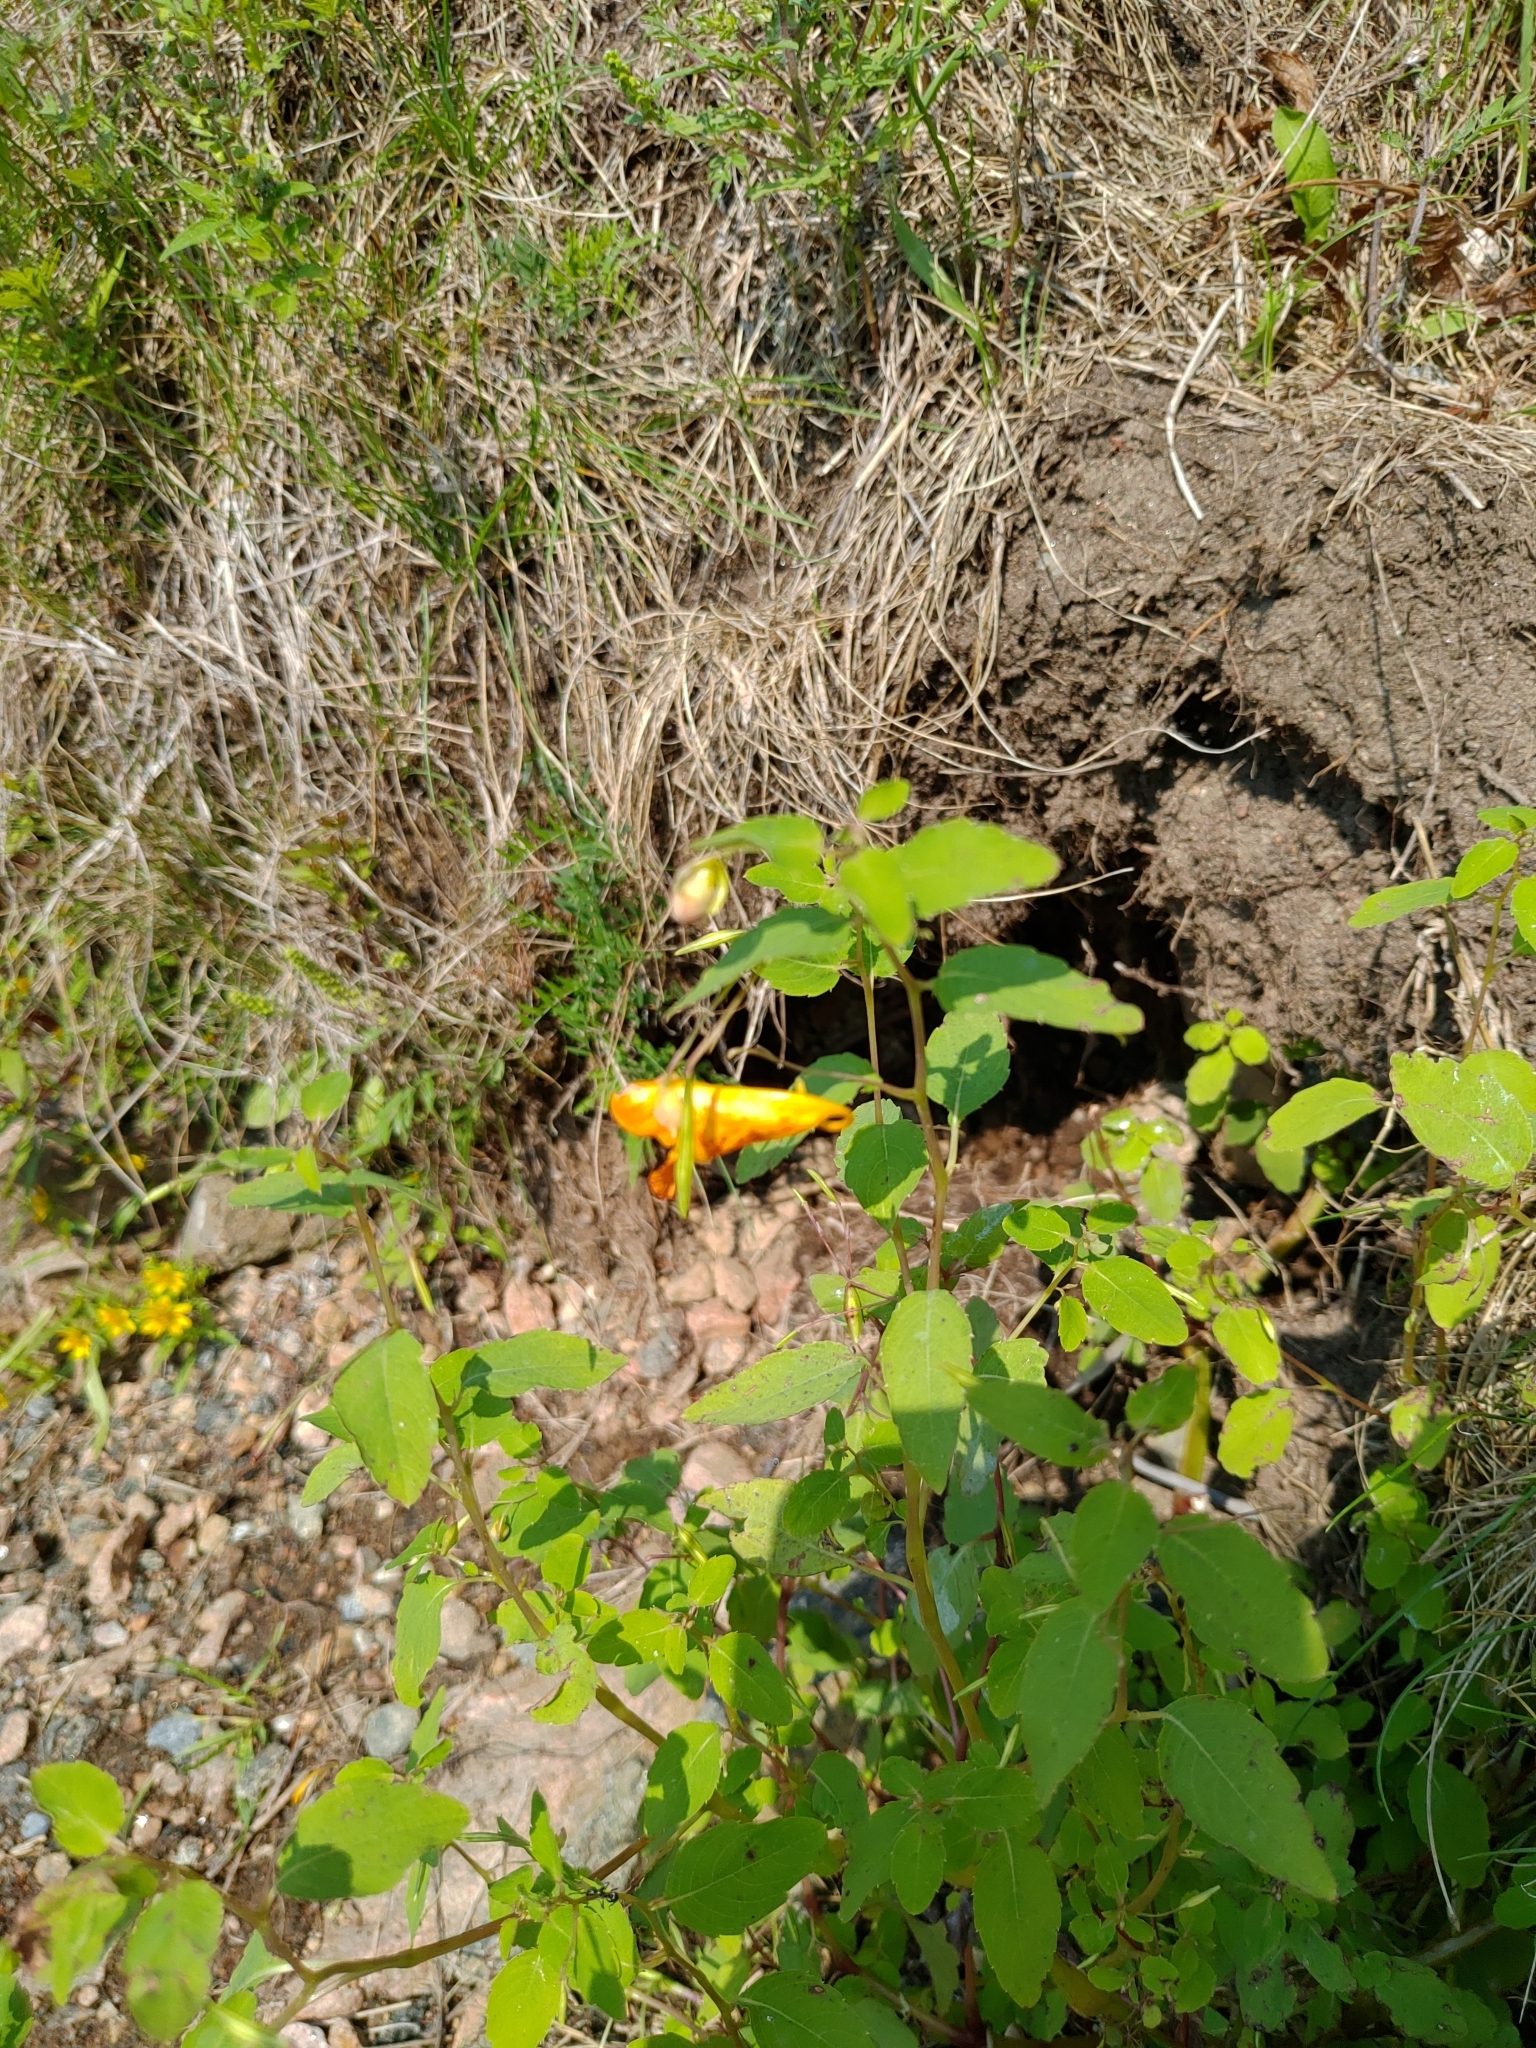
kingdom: Plantae
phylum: Tracheophyta
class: Magnoliopsida
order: Ericales
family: Balsaminaceae
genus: Impatiens
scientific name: Impatiens capensis
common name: Orange balsam
